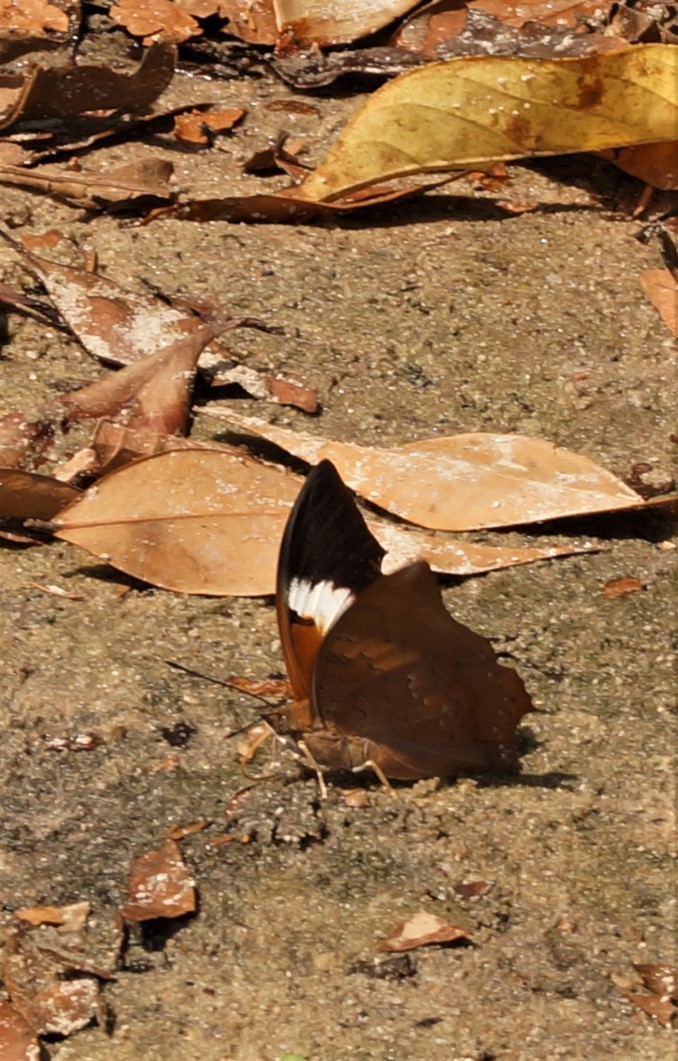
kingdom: Animalia
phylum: Arthropoda
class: Insecta
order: Lepidoptera
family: Nymphalidae
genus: Charaxes
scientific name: Charaxes bernardus
